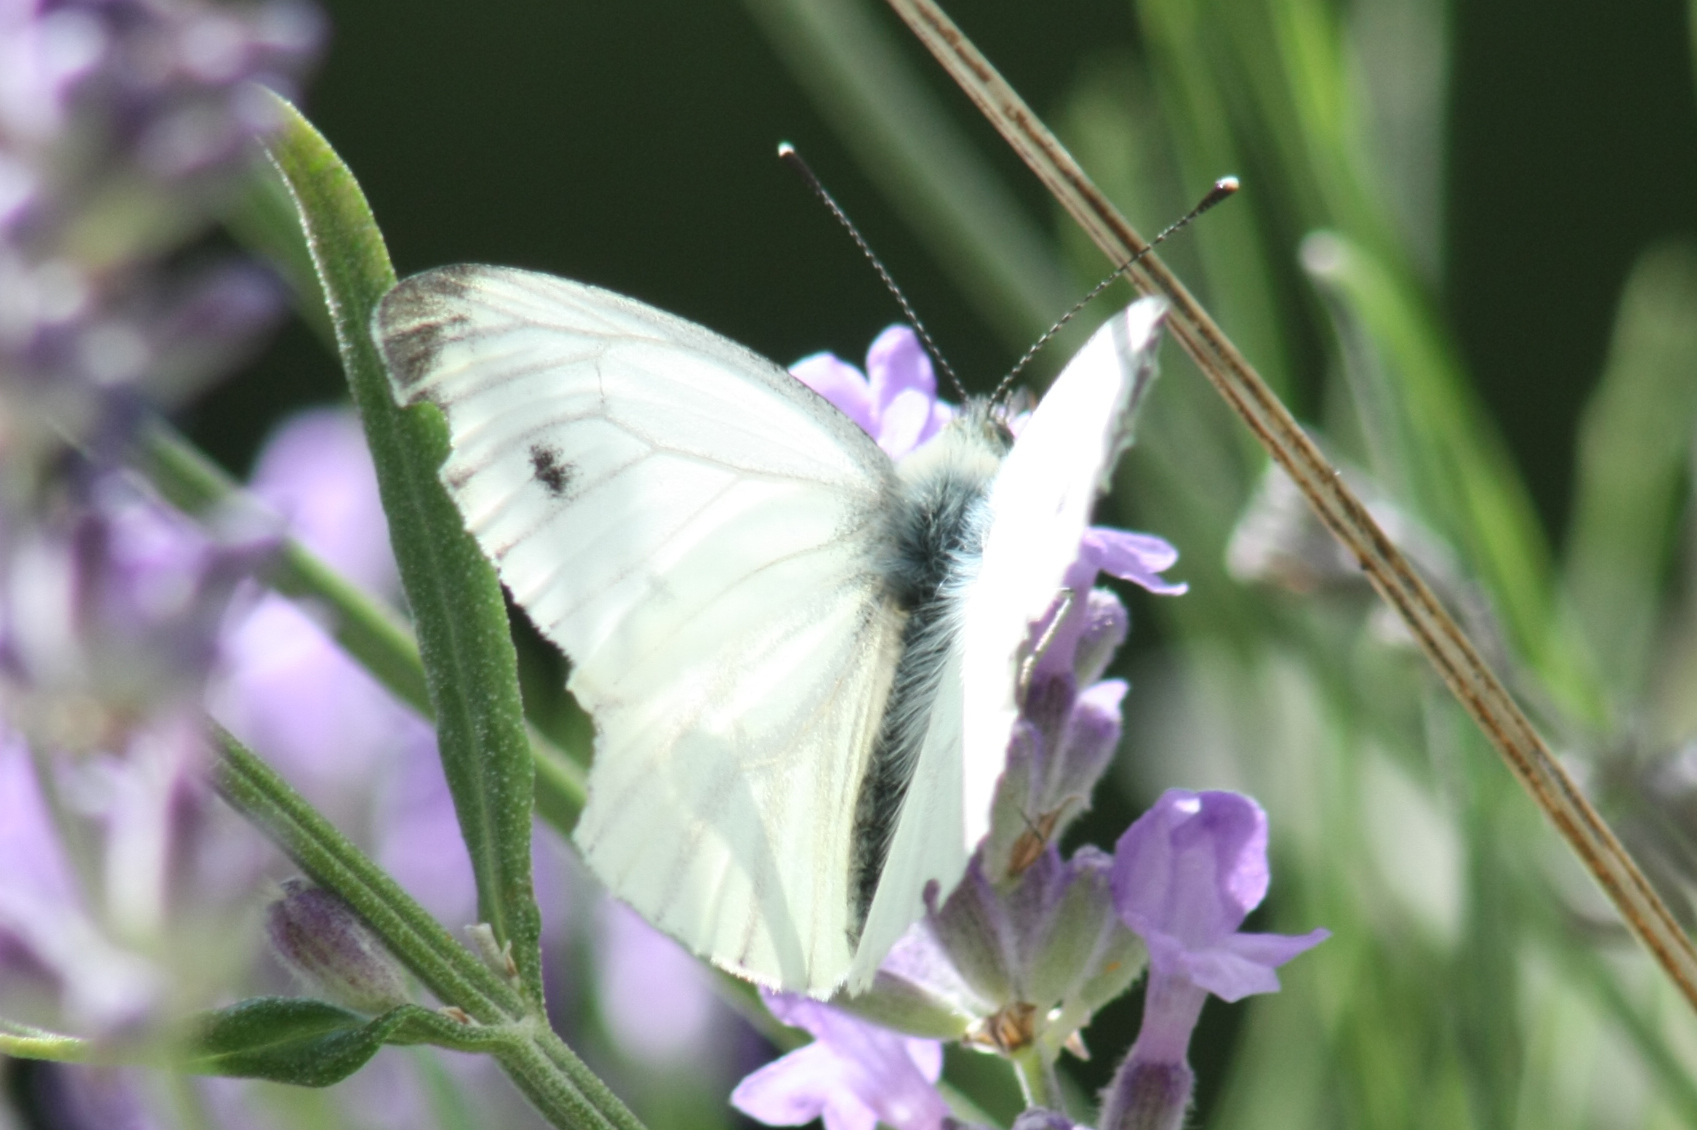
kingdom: Animalia
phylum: Arthropoda
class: Insecta
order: Lepidoptera
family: Pieridae
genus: Pieris
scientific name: Pieris napi
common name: Green-veined white
